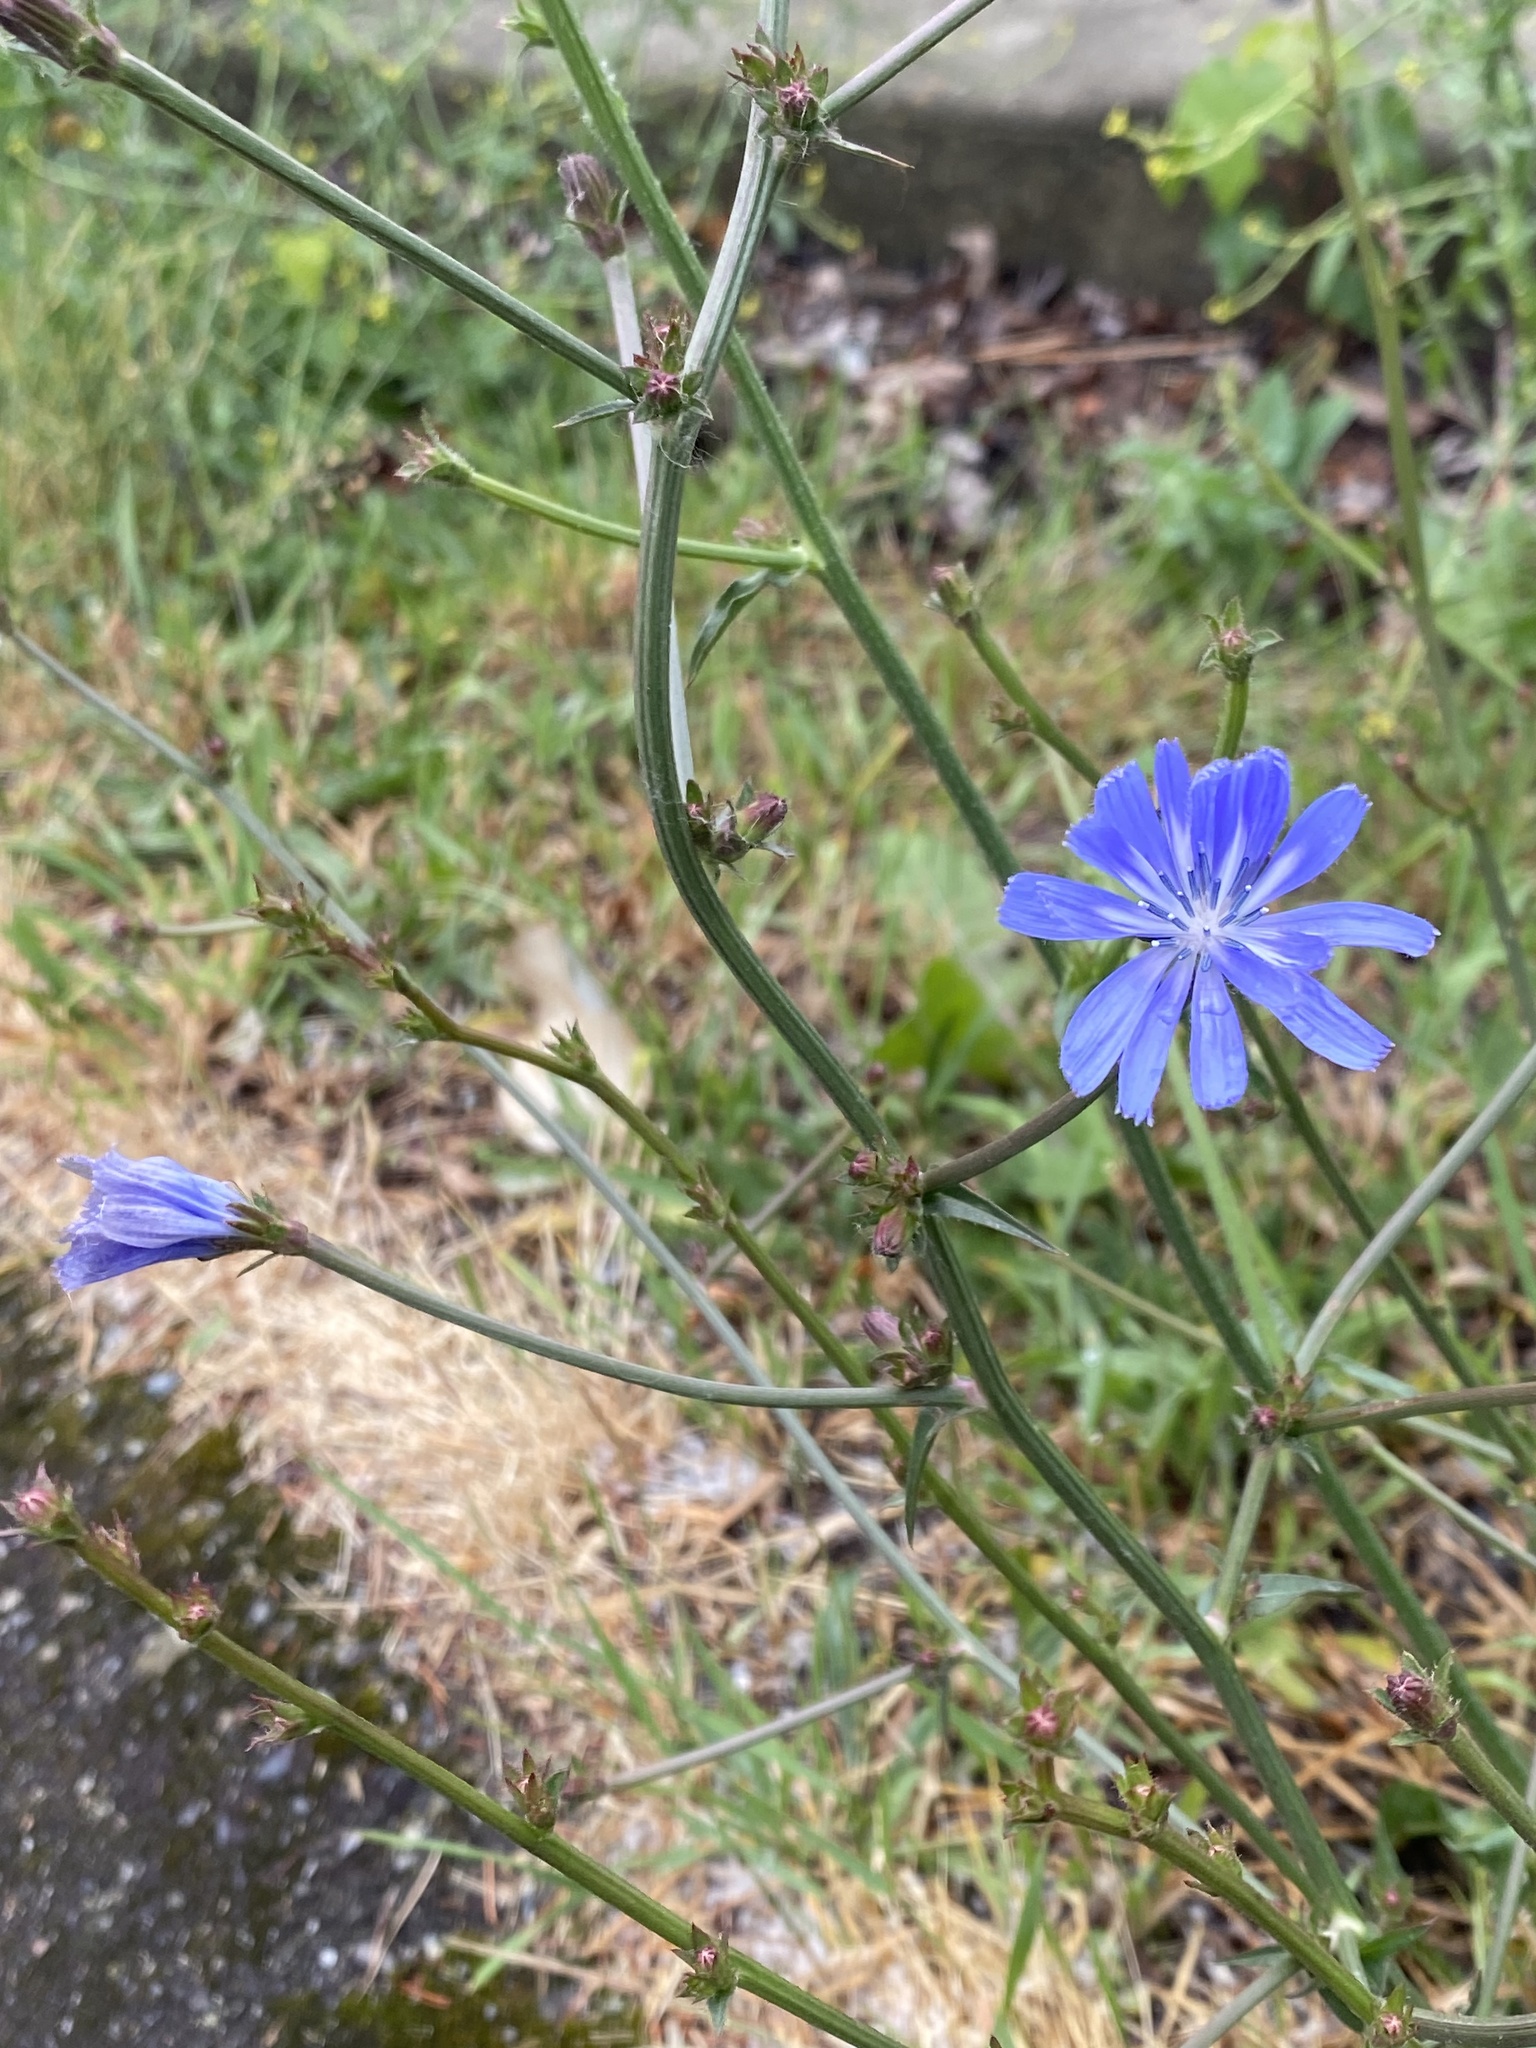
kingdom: Plantae
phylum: Tracheophyta
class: Magnoliopsida
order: Asterales
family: Asteraceae
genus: Cichorium
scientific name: Cichorium intybus
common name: Chicory
